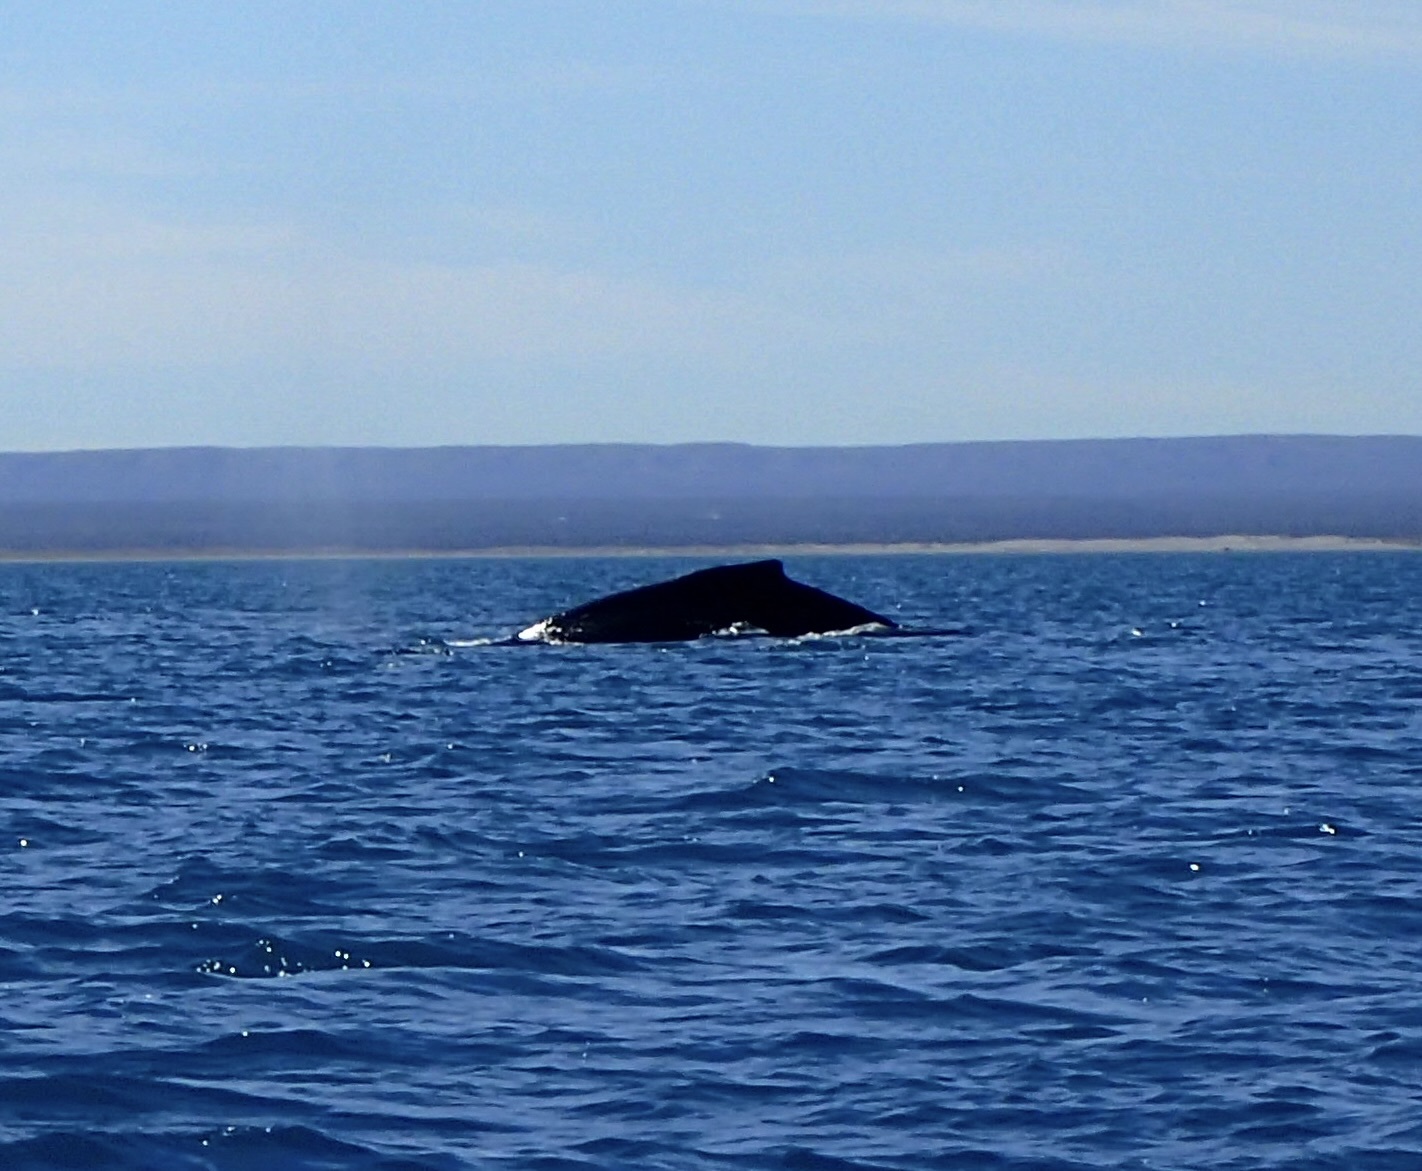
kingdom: Animalia
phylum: Chordata
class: Mammalia
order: Cetacea
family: Balaenopteridae
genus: Megaptera
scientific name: Megaptera novaeangliae
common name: Humpback whale
